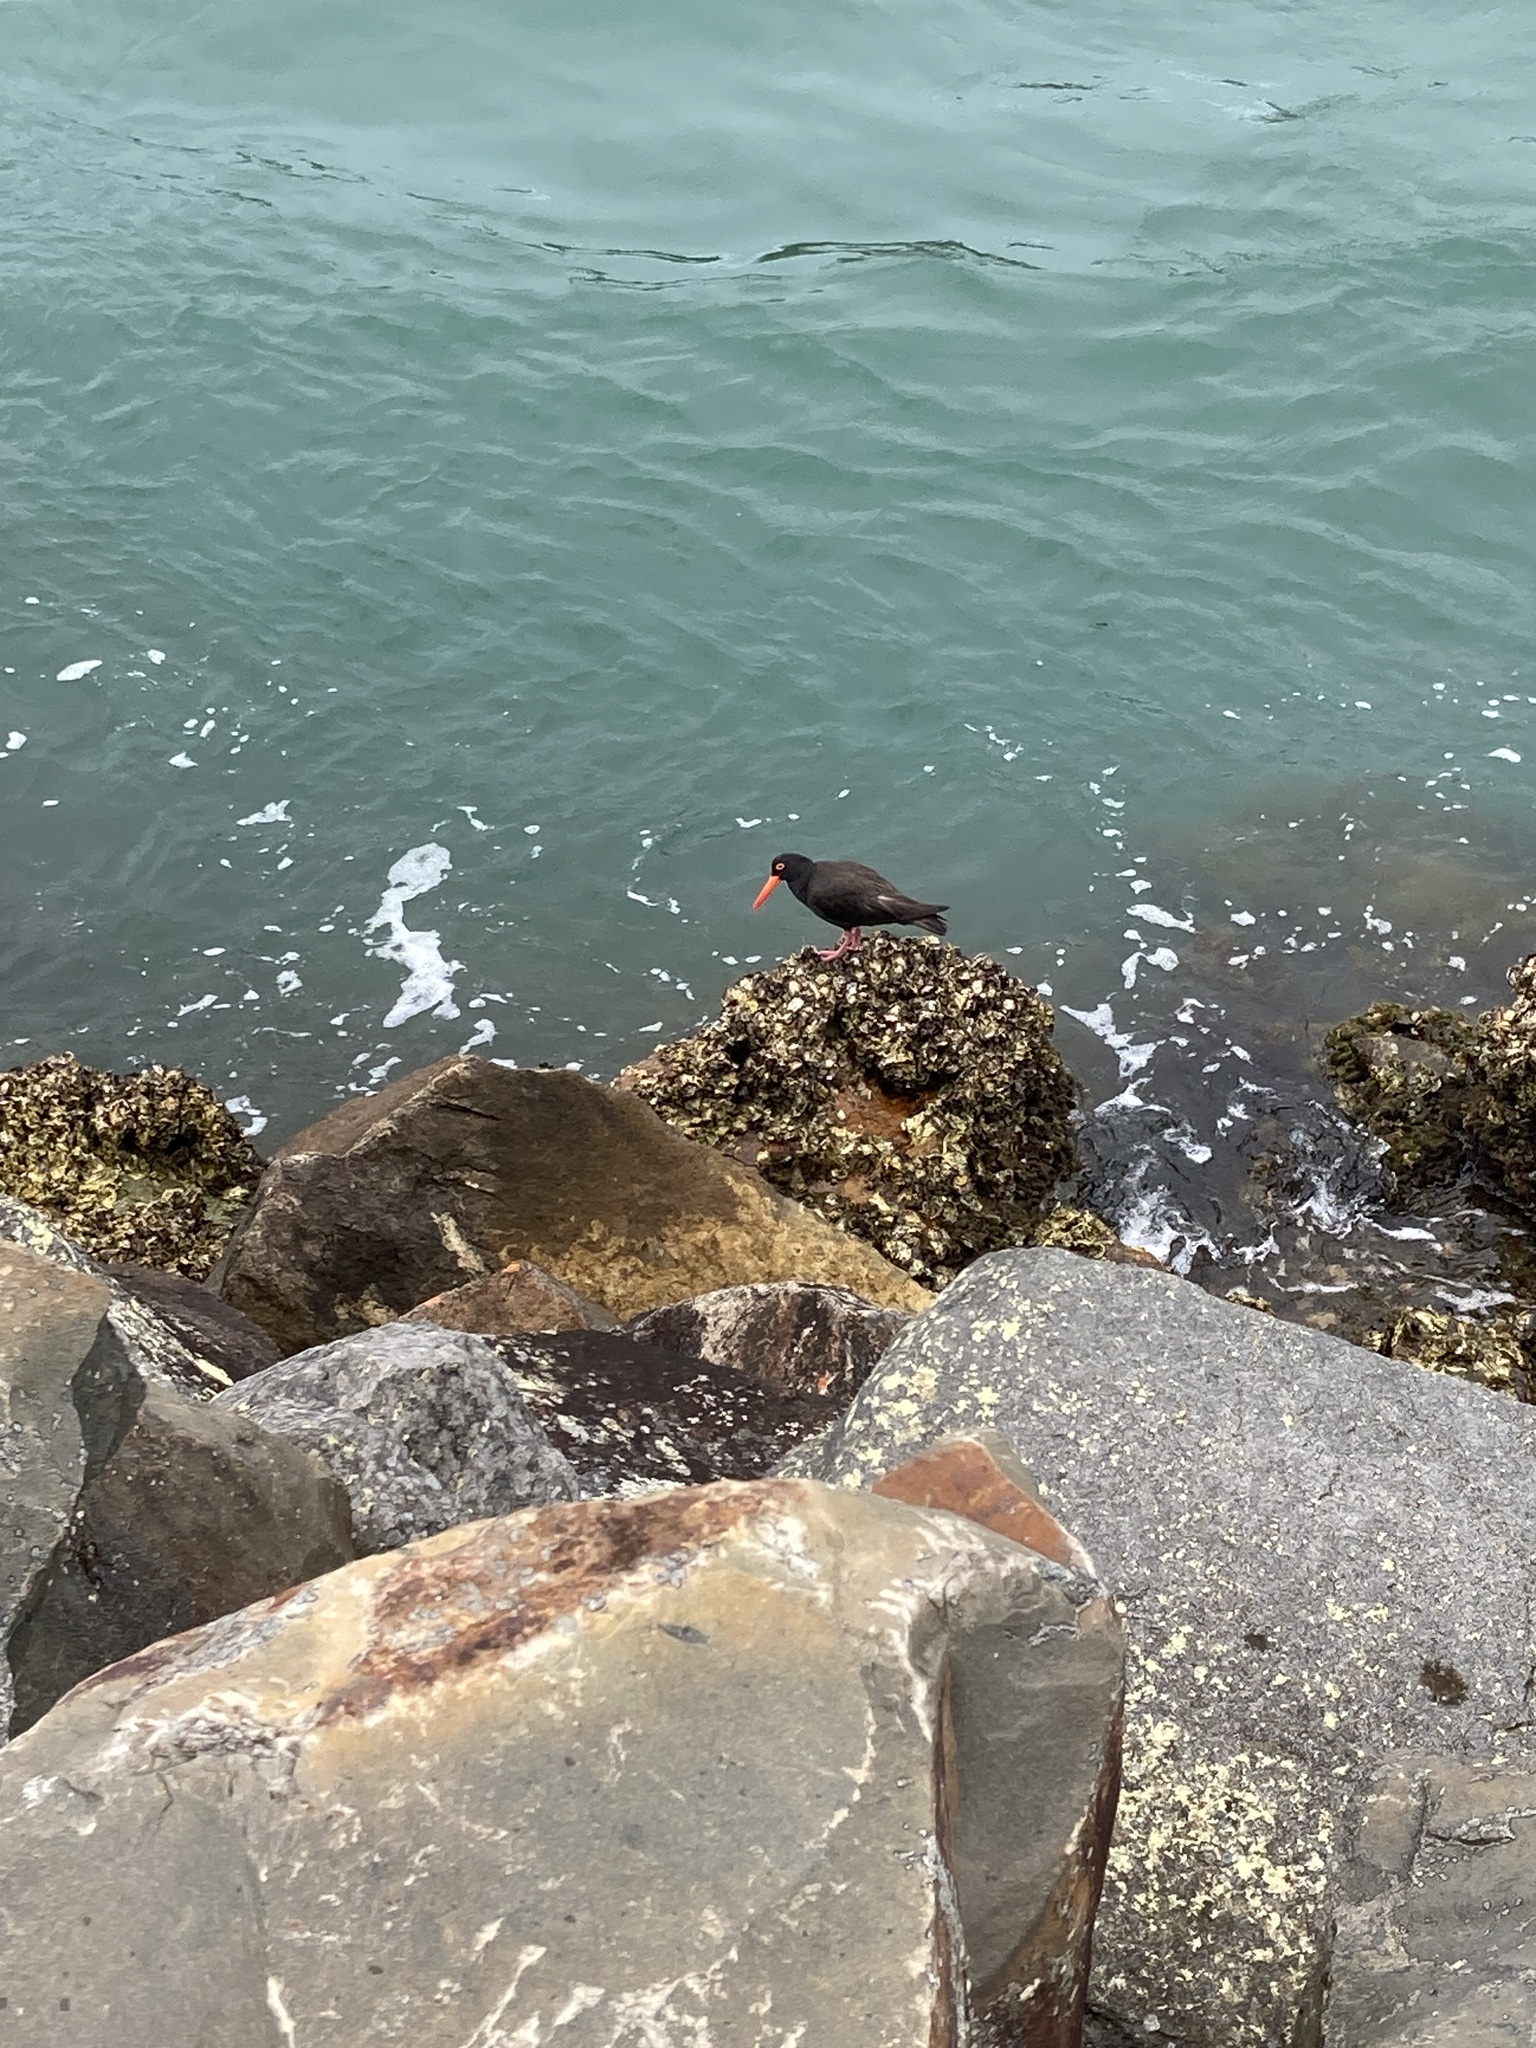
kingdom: Animalia
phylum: Chordata
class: Aves
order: Charadriiformes
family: Haematopodidae
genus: Haematopus
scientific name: Haematopus fuliginosus
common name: Sooty oystercatcher
